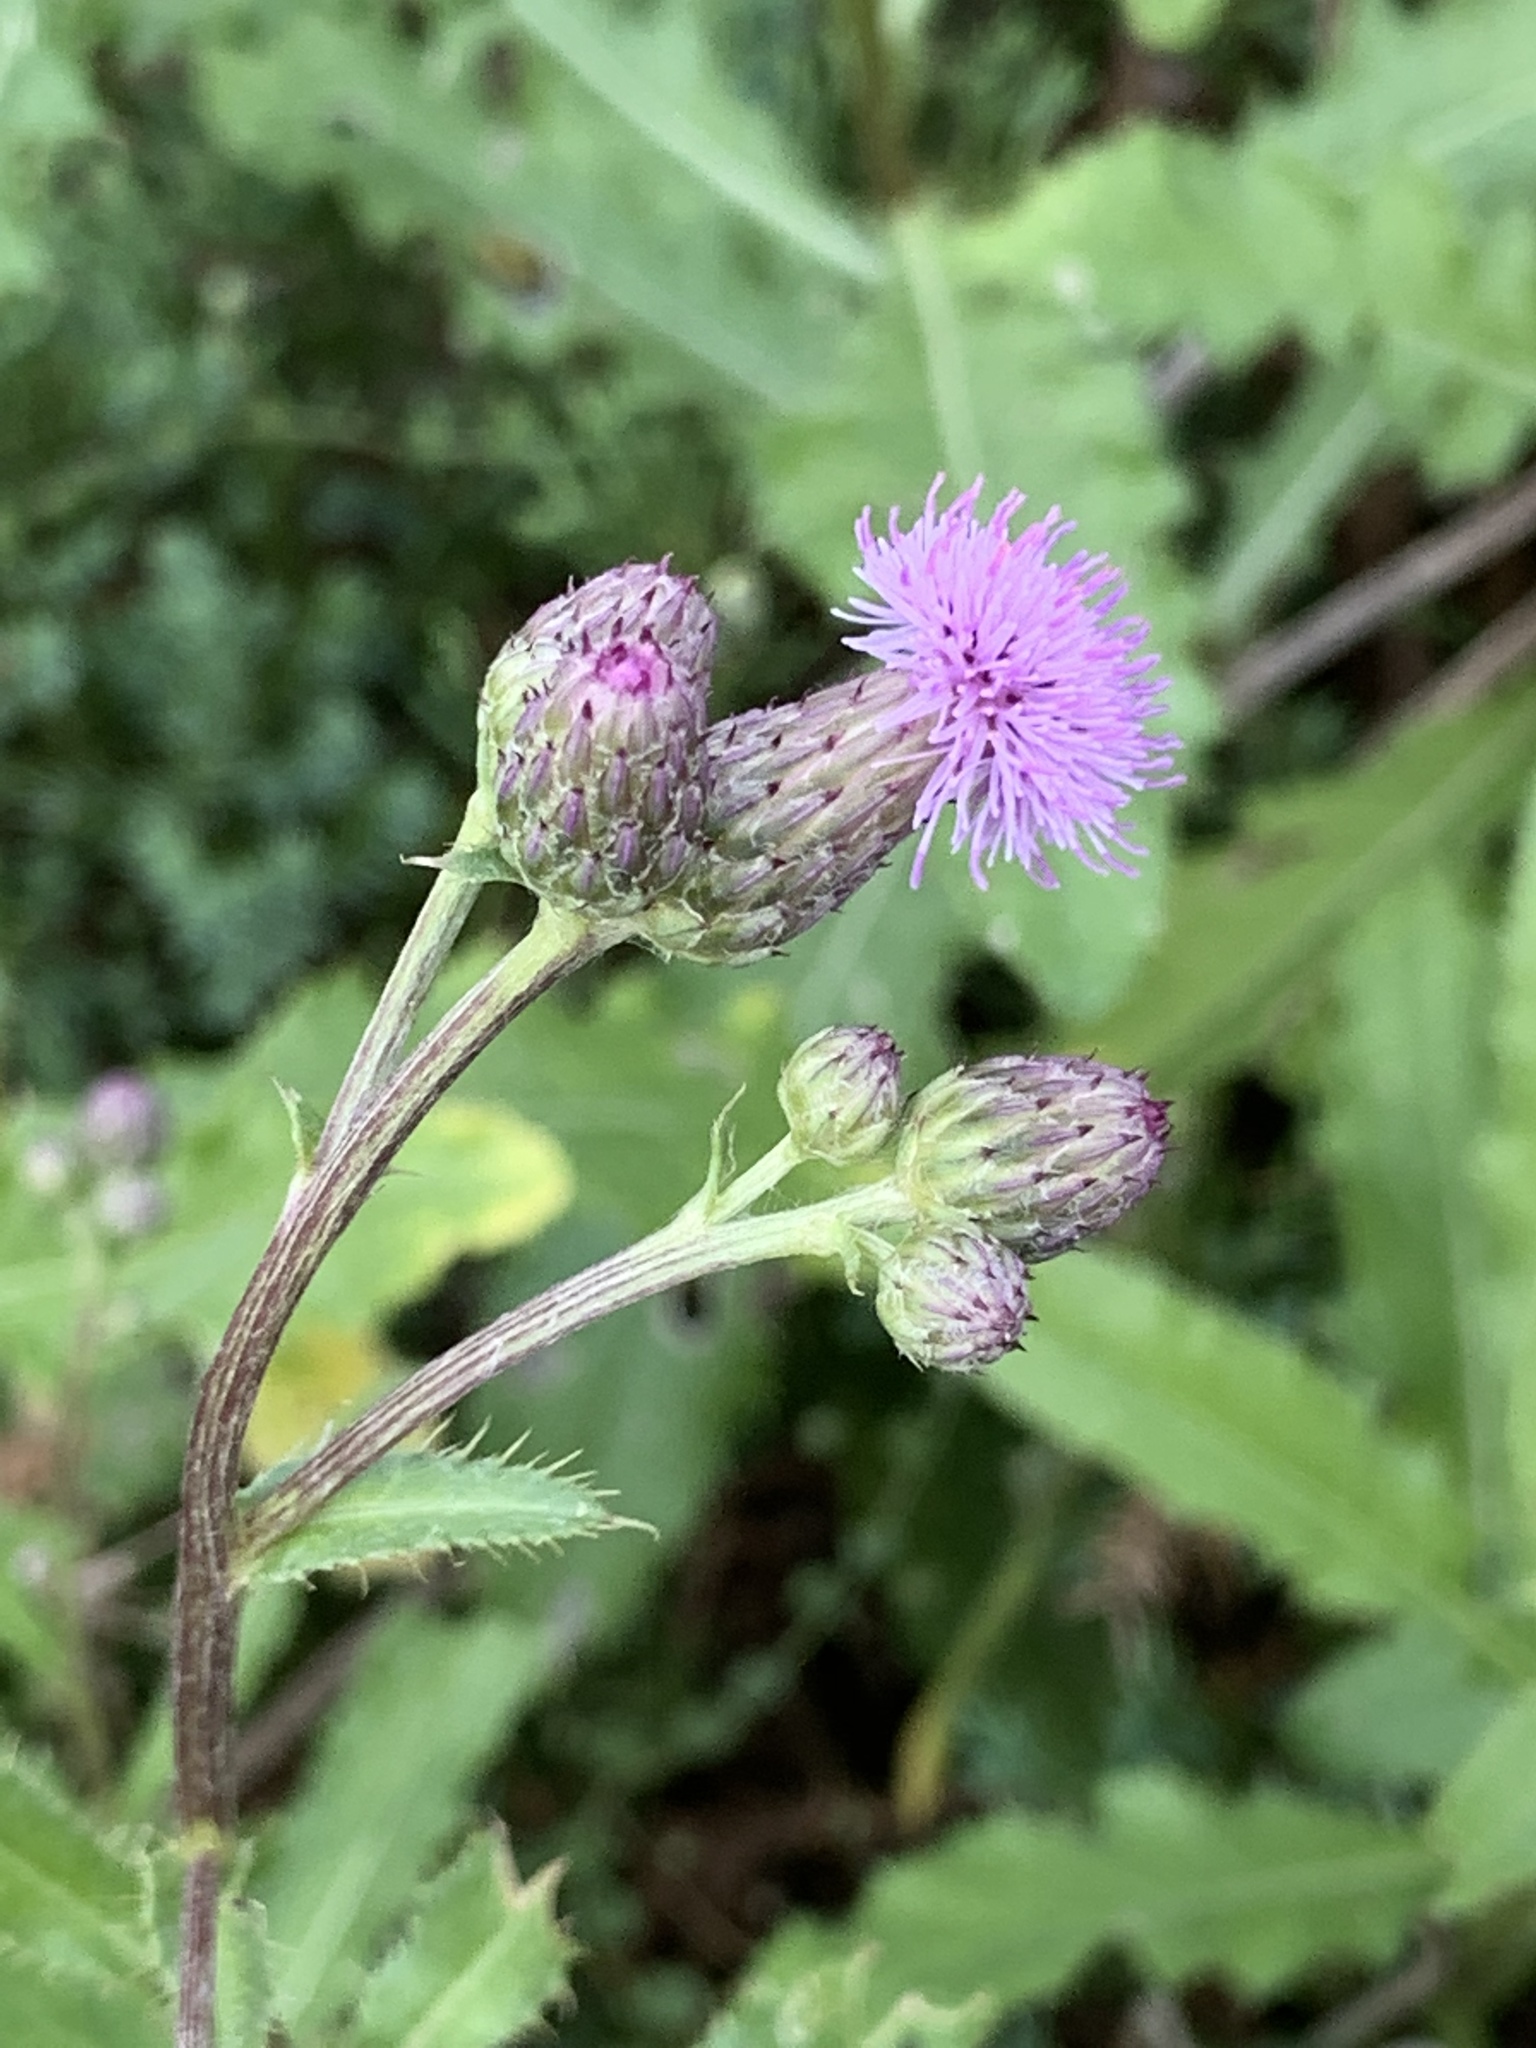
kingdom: Plantae
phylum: Tracheophyta
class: Magnoliopsida
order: Asterales
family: Asteraceae
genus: Cirsium
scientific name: Cirsium arvense
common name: Creeping thistle
